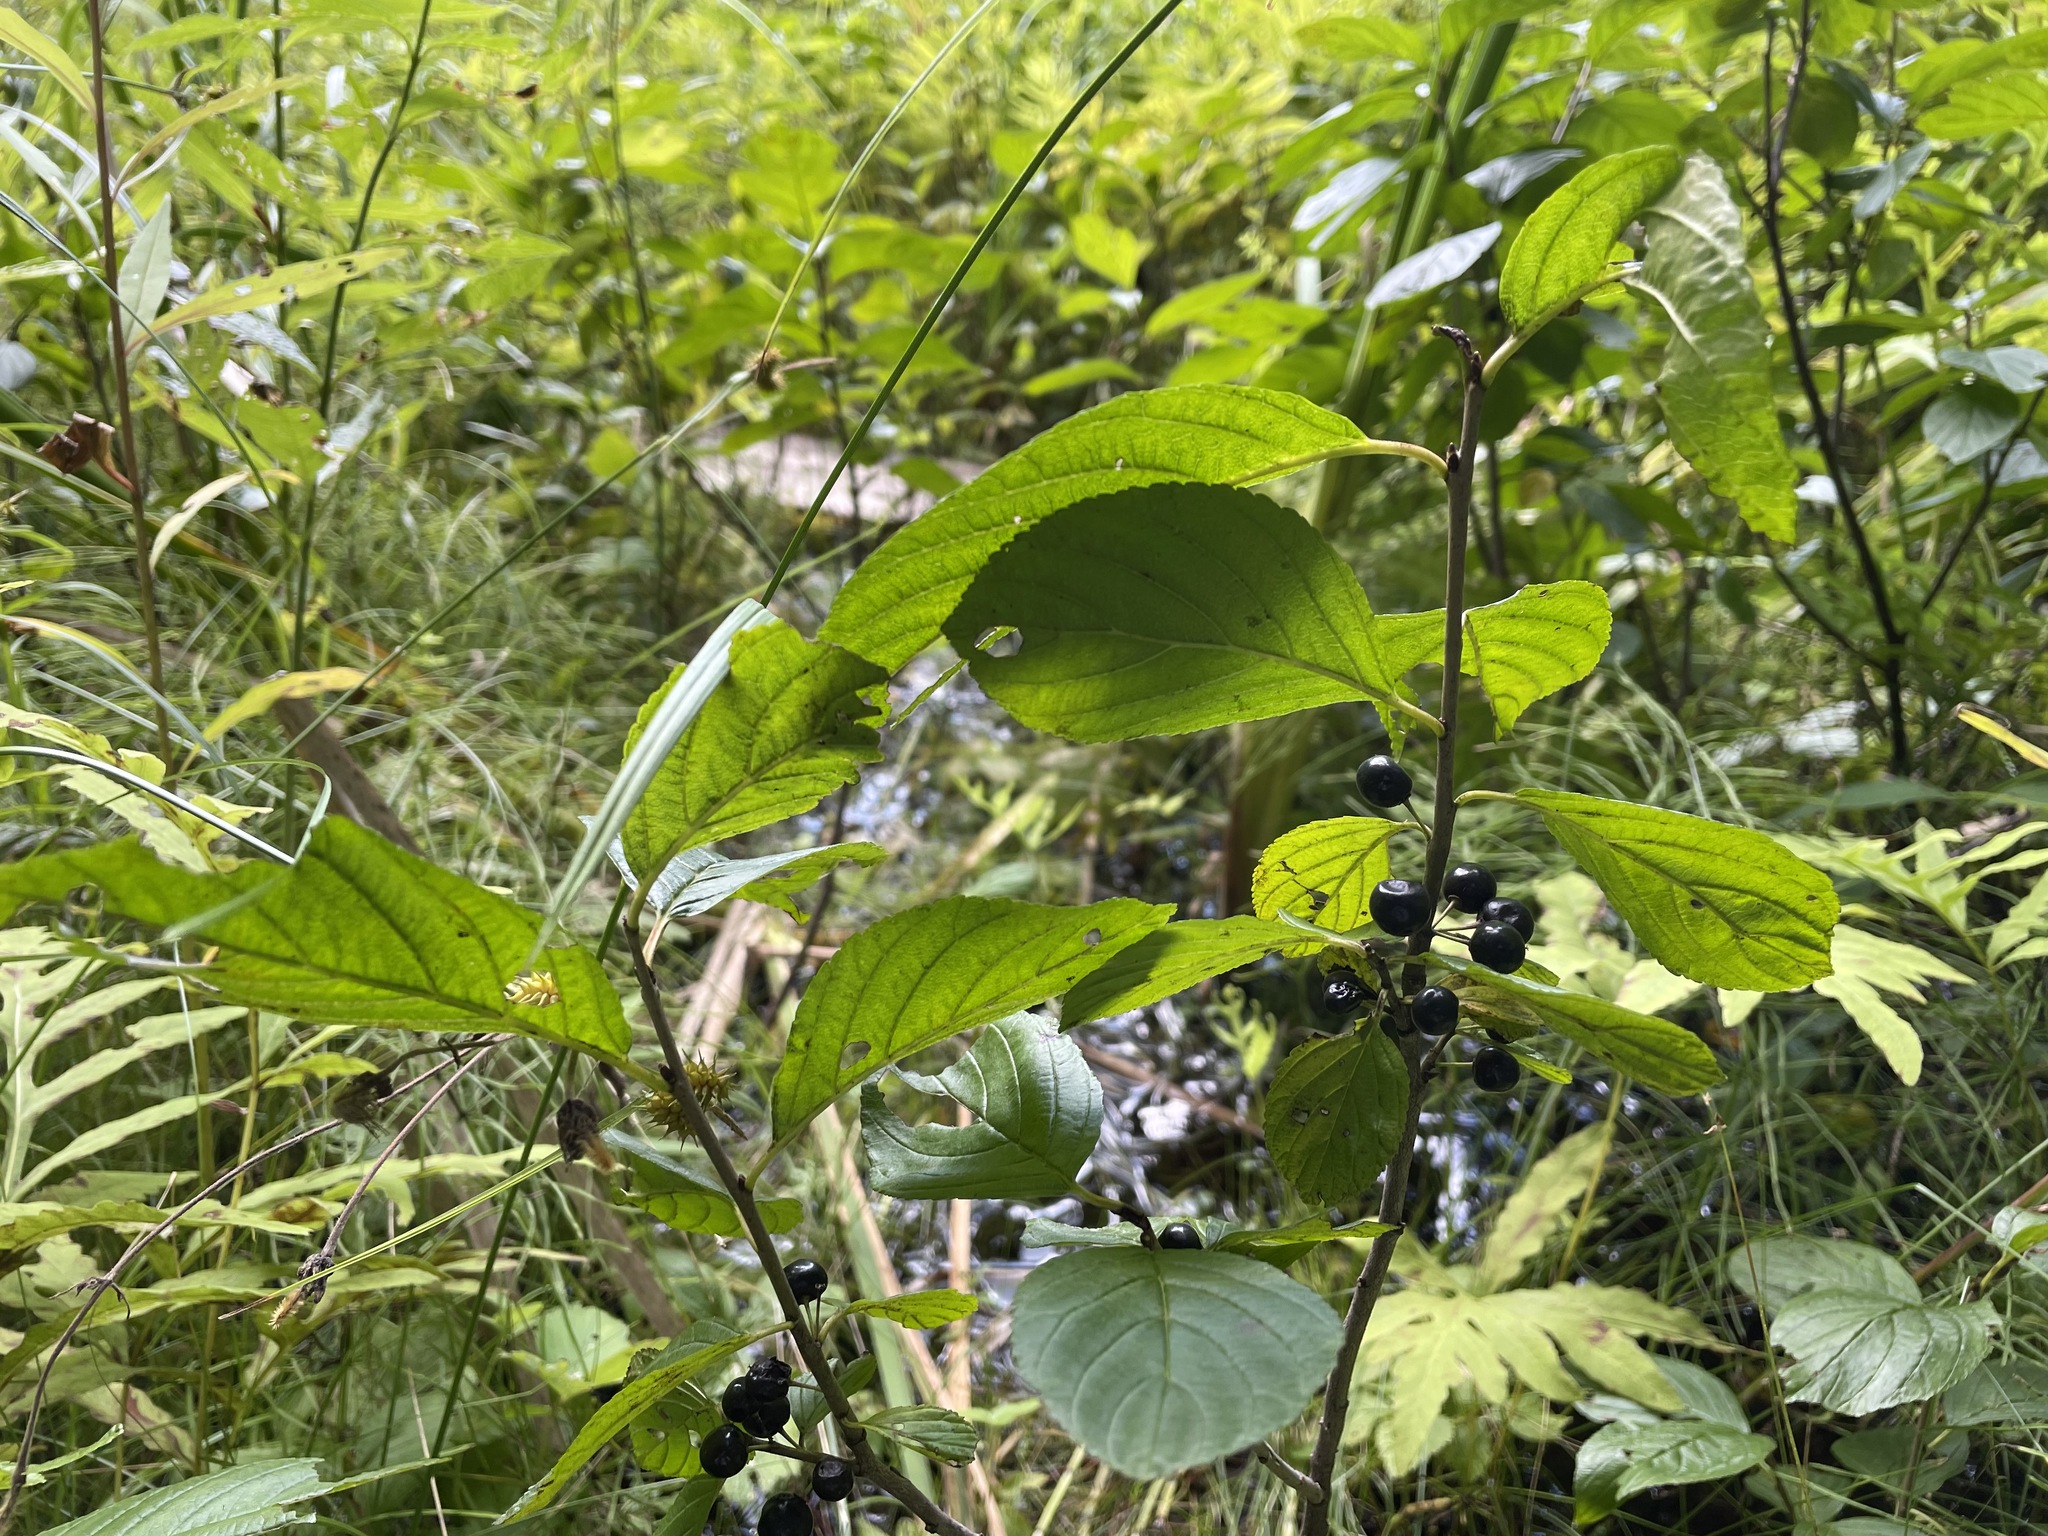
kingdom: Plantae
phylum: Tracheophyta
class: Magnoliopsida
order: Rosales
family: Rhamnaceae
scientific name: Rhamnaceae
